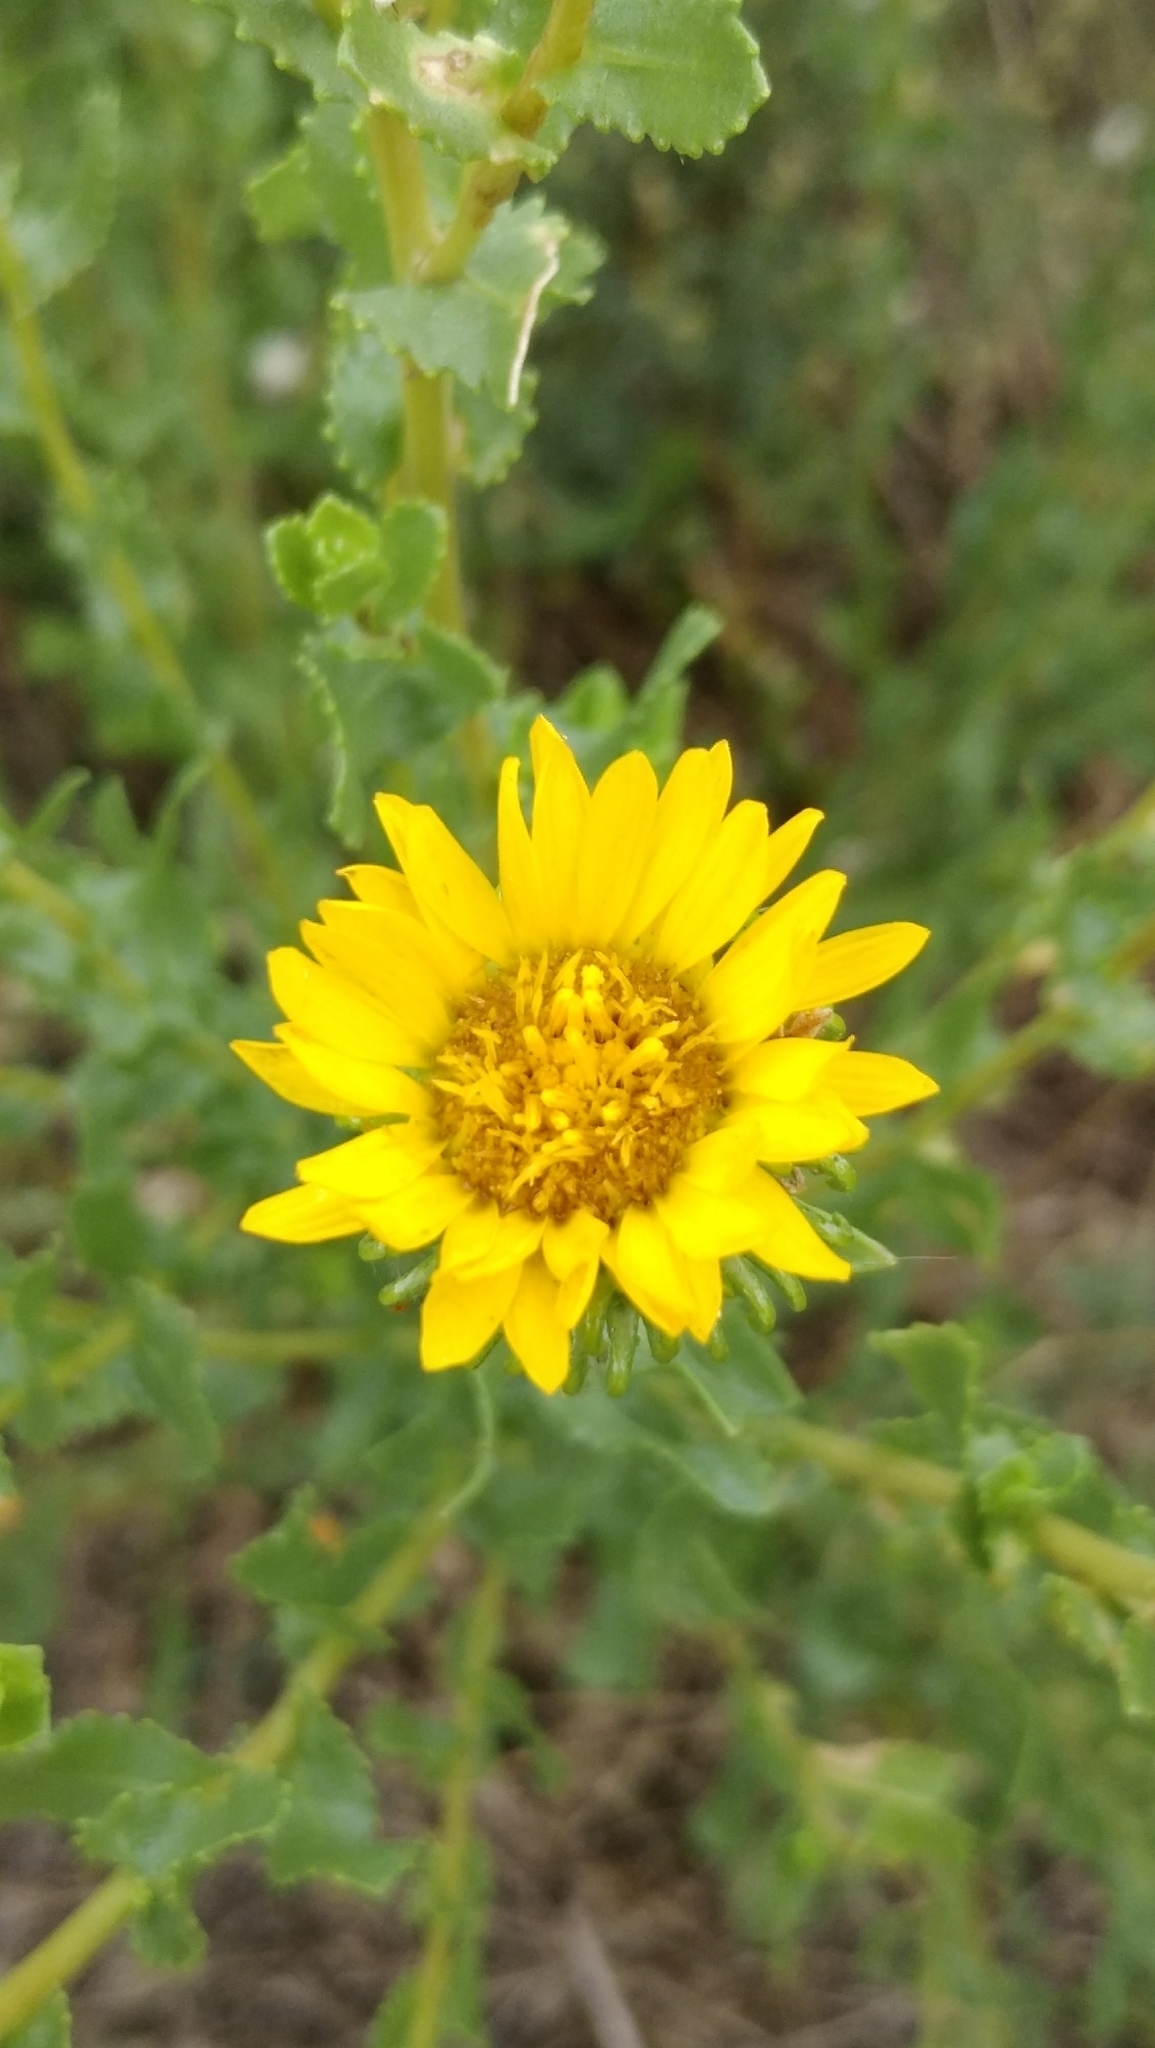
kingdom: Plantae
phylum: Tracheophyta
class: Magnoliopsida
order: Asterales
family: Asteraceae
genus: Grindelia
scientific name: Grindelia squarrosa
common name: Curly-cup gumweed
